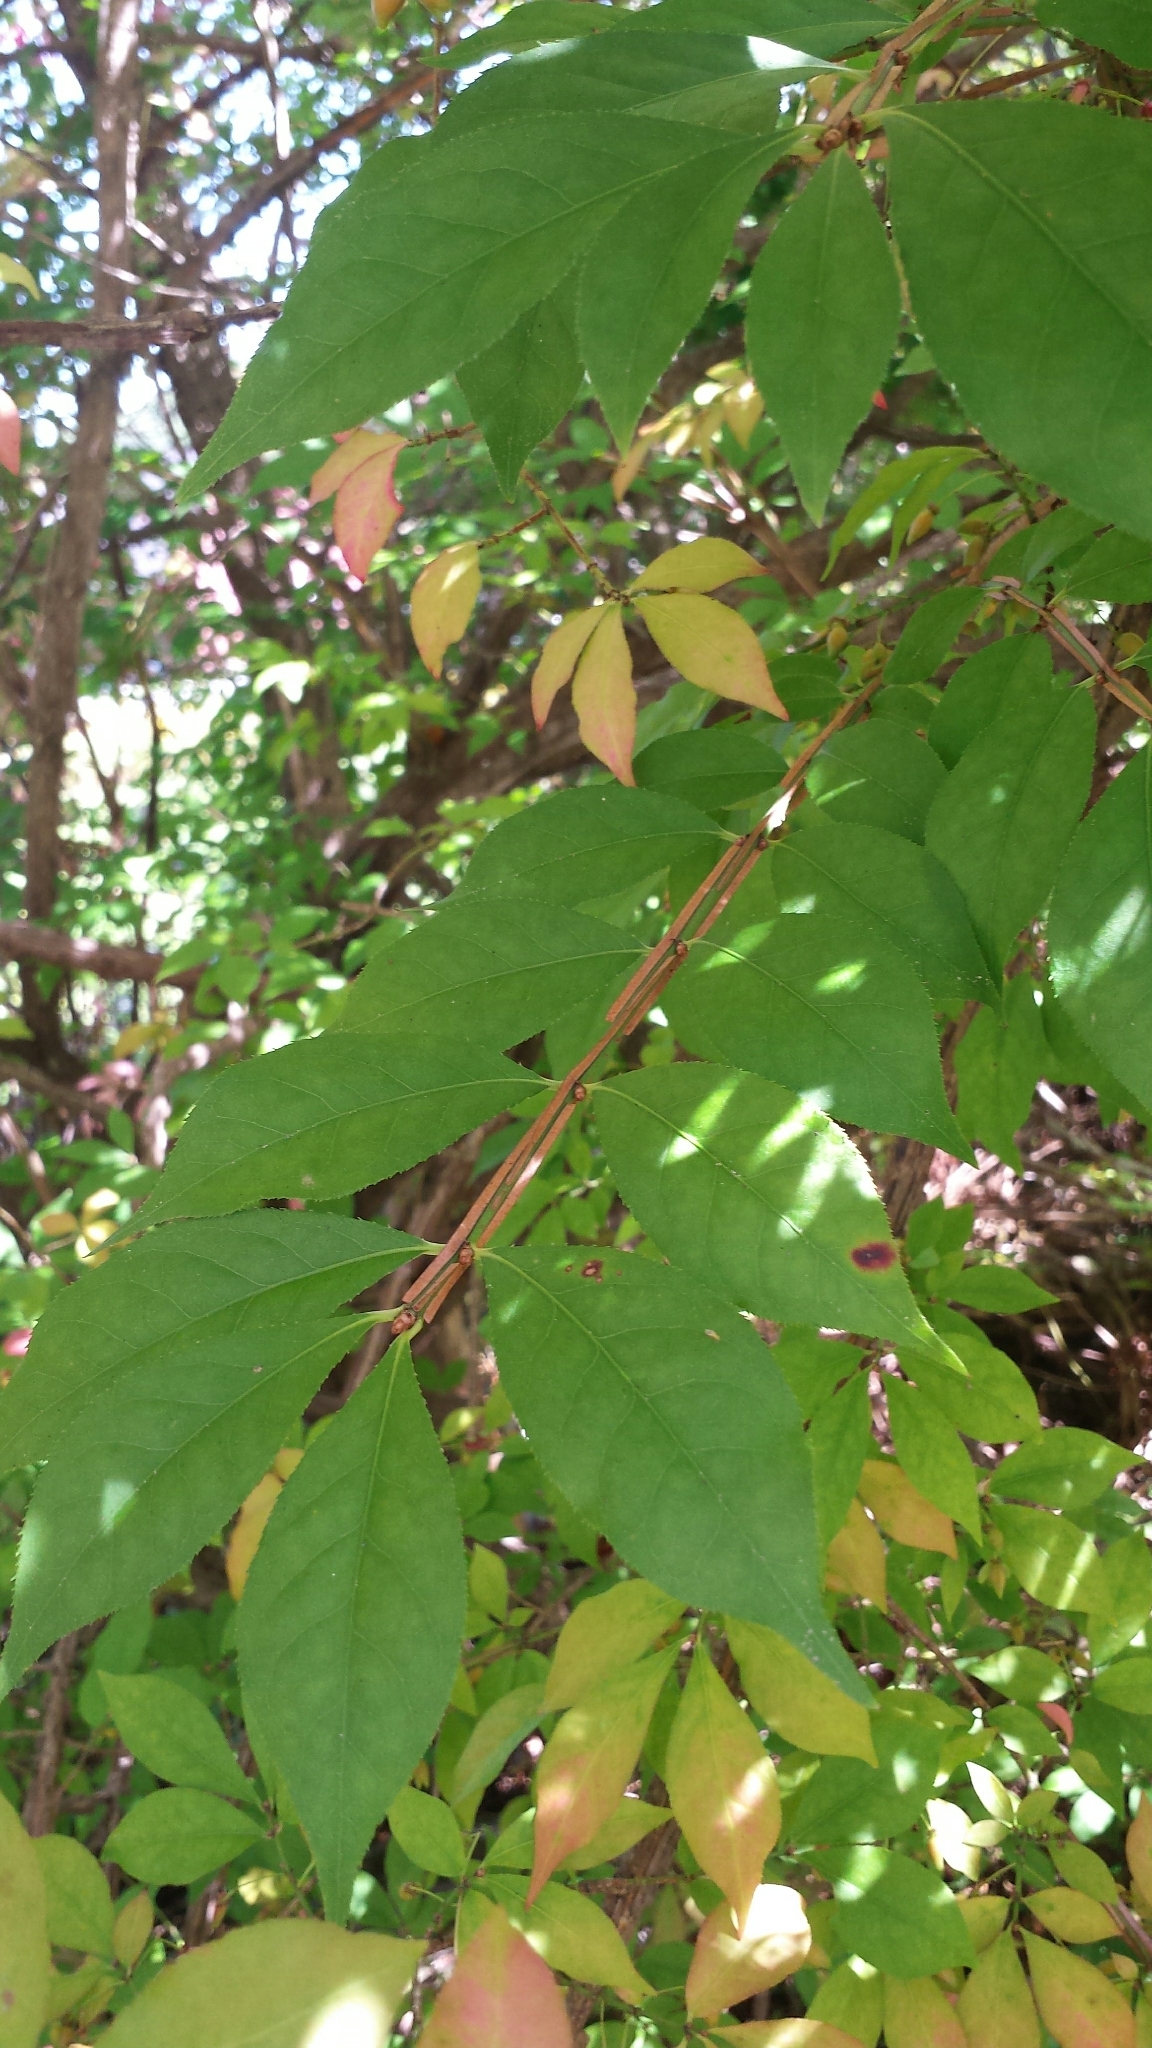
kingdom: Plantae
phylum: Tracheophyta
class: Magnoliopsida
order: Celastrales
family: Celastraceae
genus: Euonymus
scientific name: Euonymus alatus
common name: Winged euonymus
